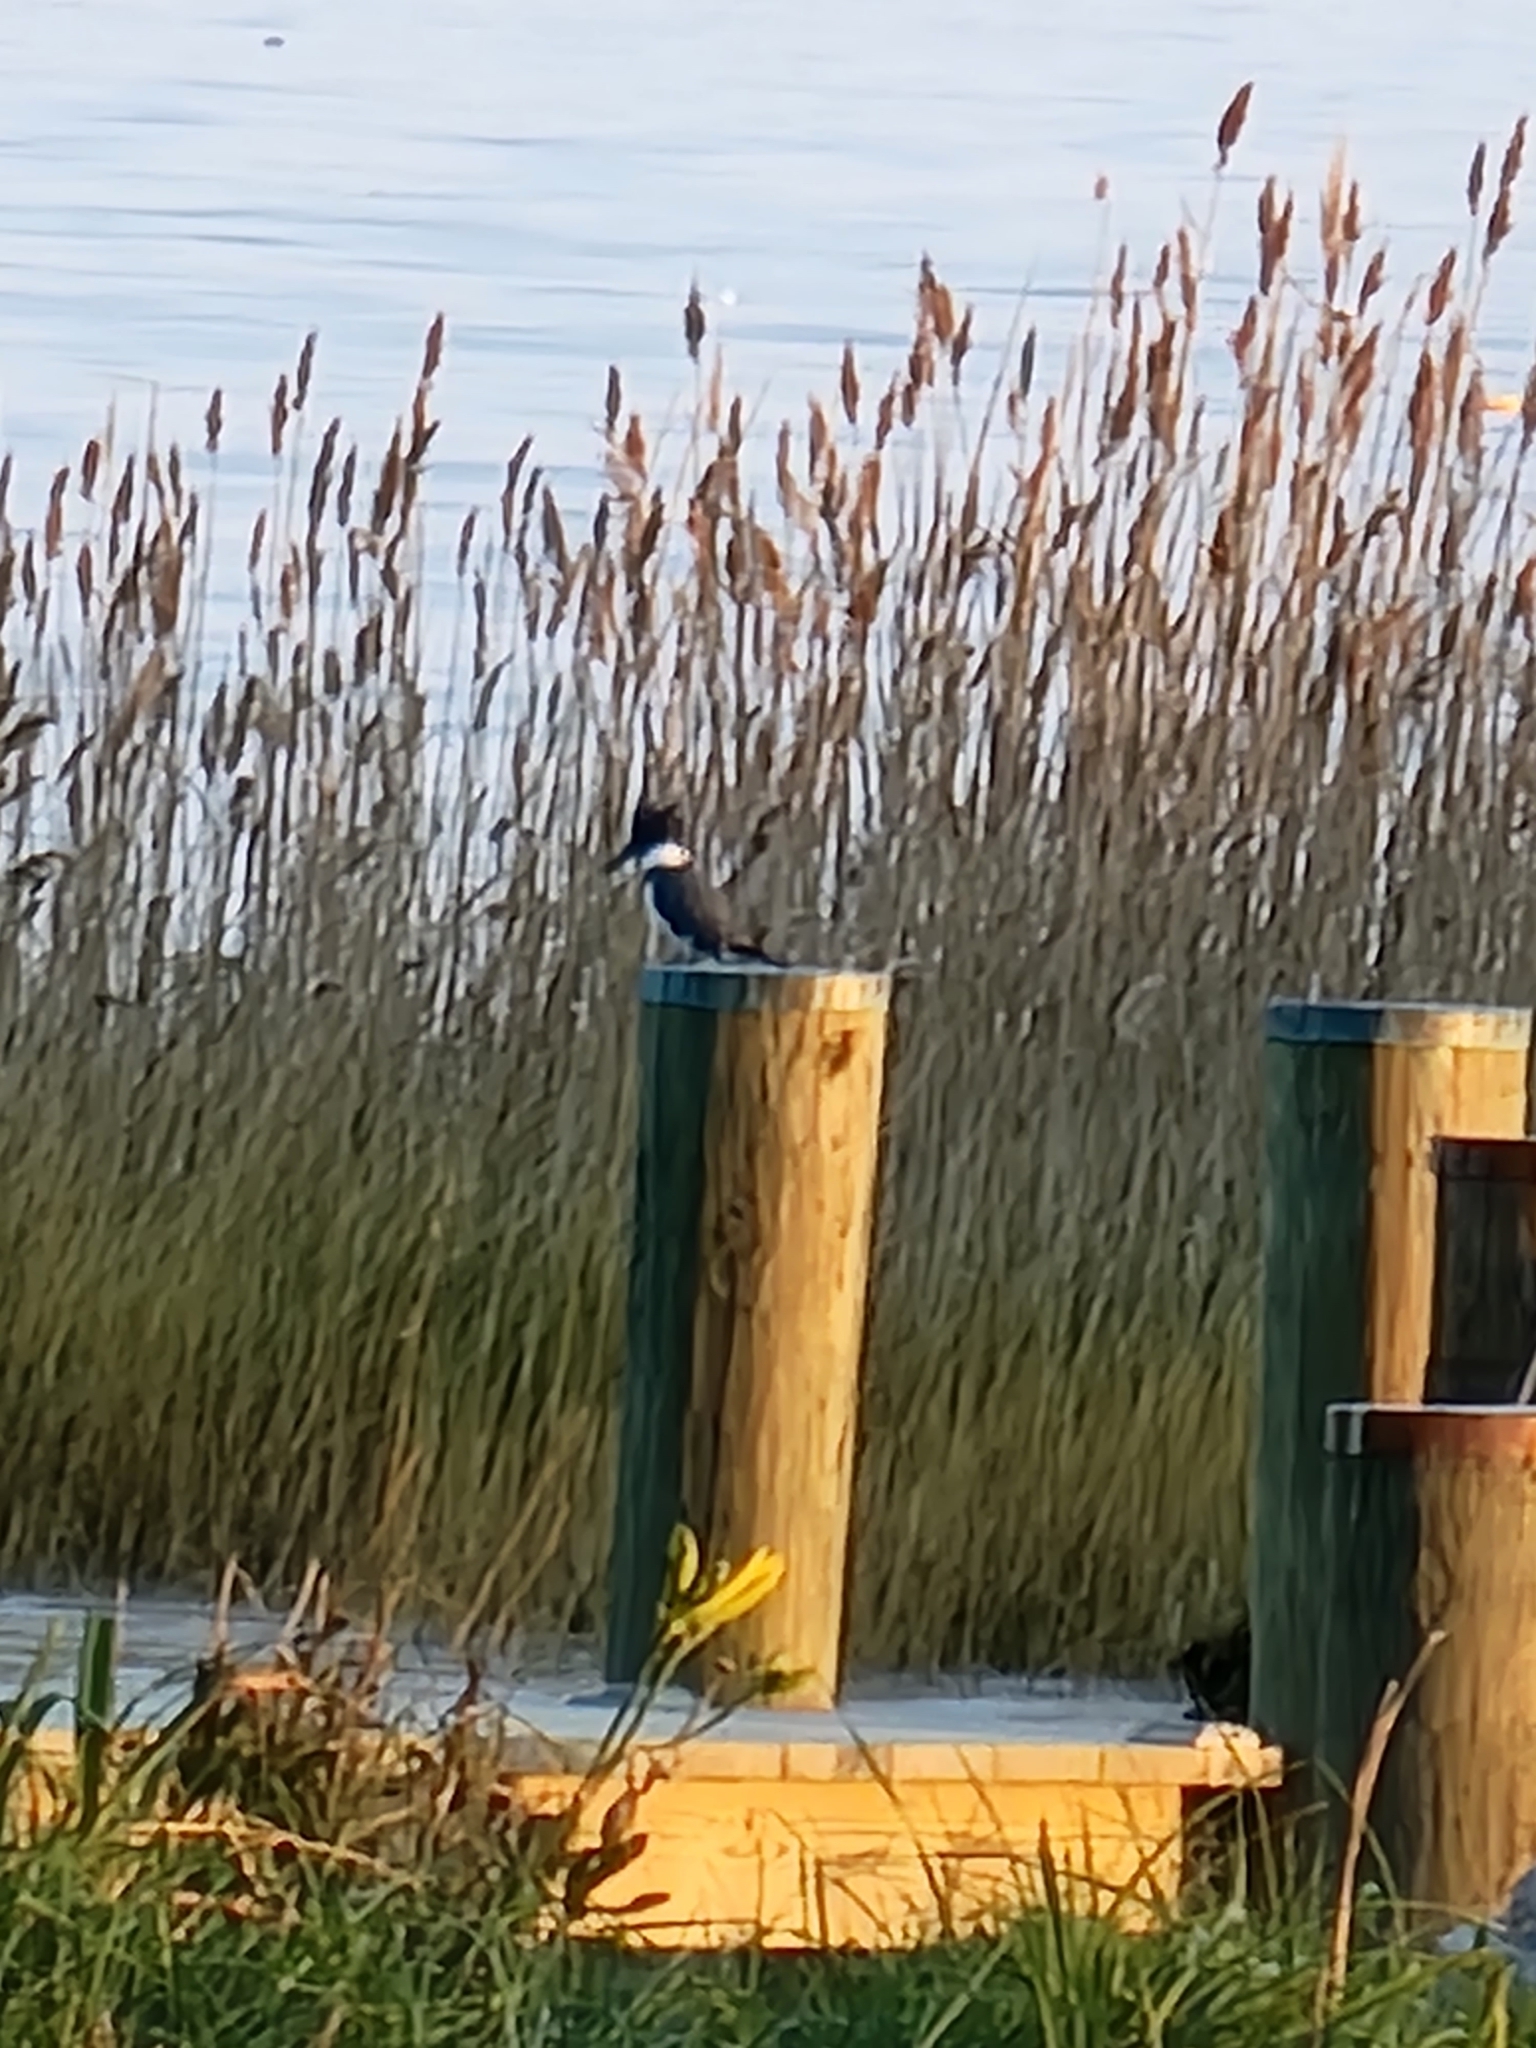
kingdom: Animalia
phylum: Chordata
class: Aves
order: Coraciiformes
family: Alcedinidae
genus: Megaceryle
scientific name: Megaceryle alcyon
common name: Belted kingfisher
